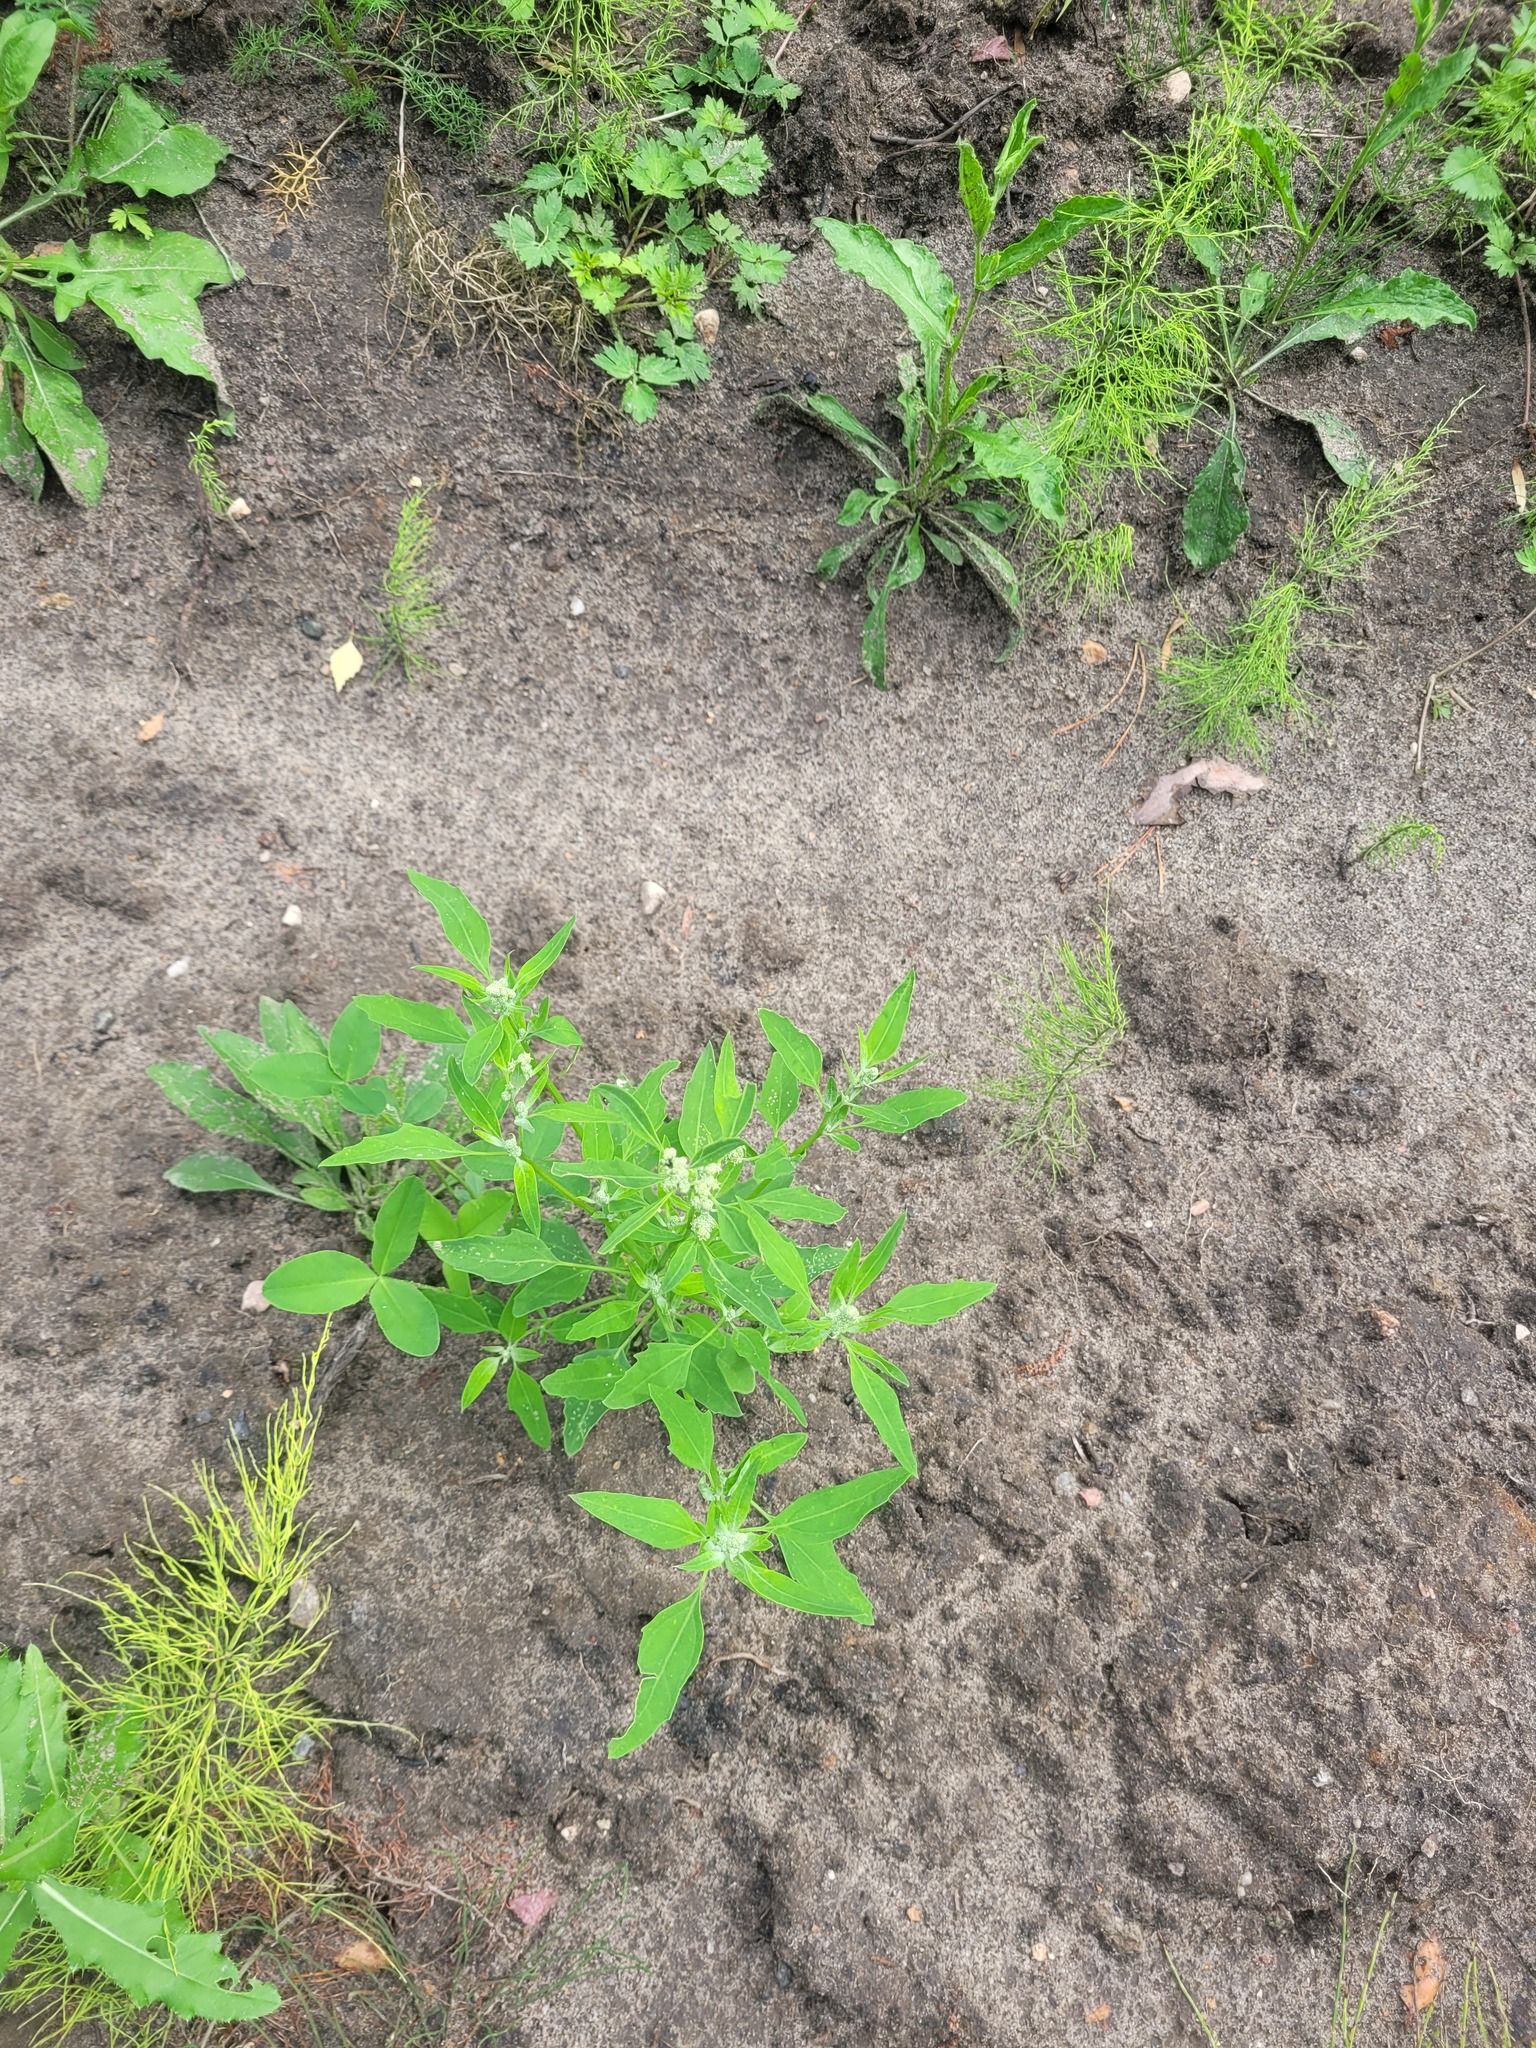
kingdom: Plantae
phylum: Tracheophyta
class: Magnoliopsida
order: Caryophyllales
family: Amaranthaceae
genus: Chenopodium
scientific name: Chenopodium album
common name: Fat-hen
